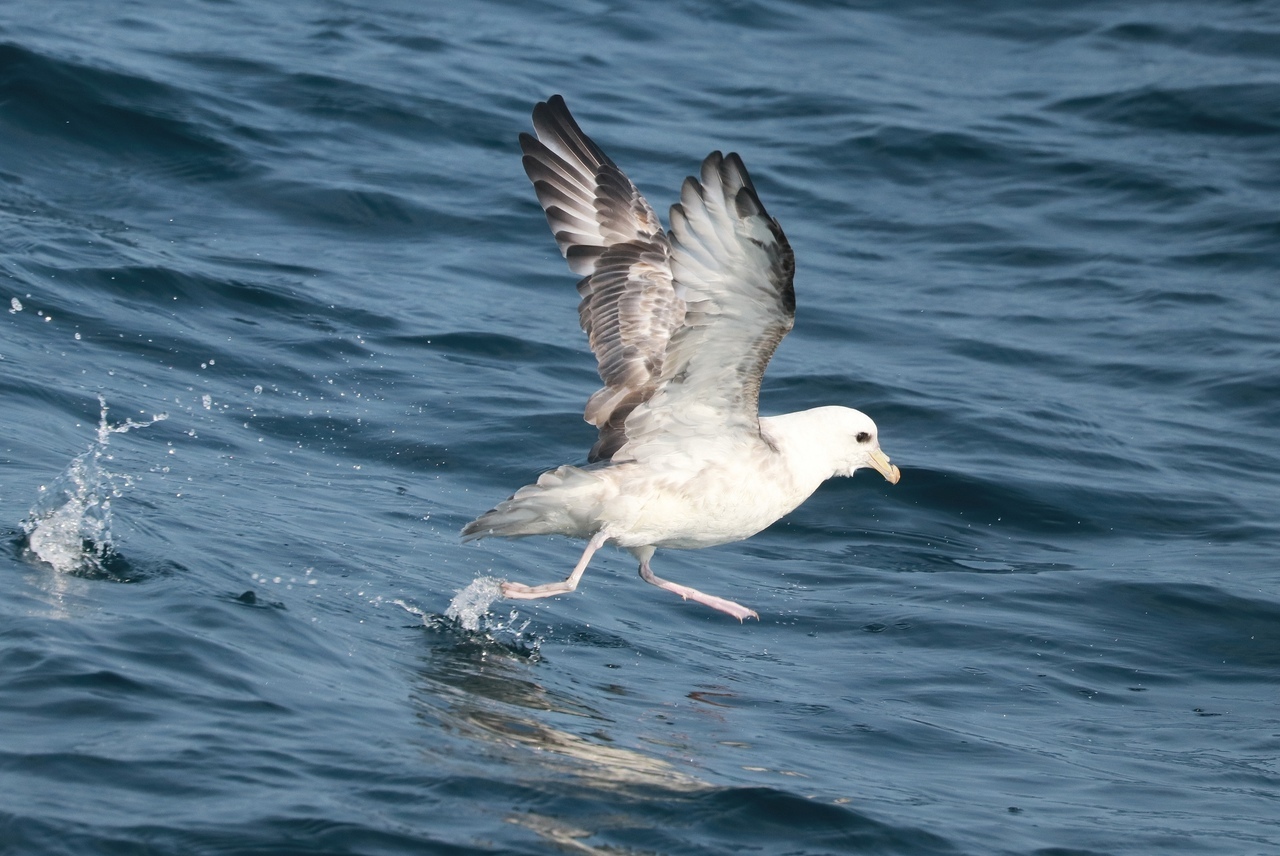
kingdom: Animalia
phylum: Chordata
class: Aves
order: Procellariiformes
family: Procellariidae
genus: Fulmarus
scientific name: Fulmarus glacialis
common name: Northern fulmar
